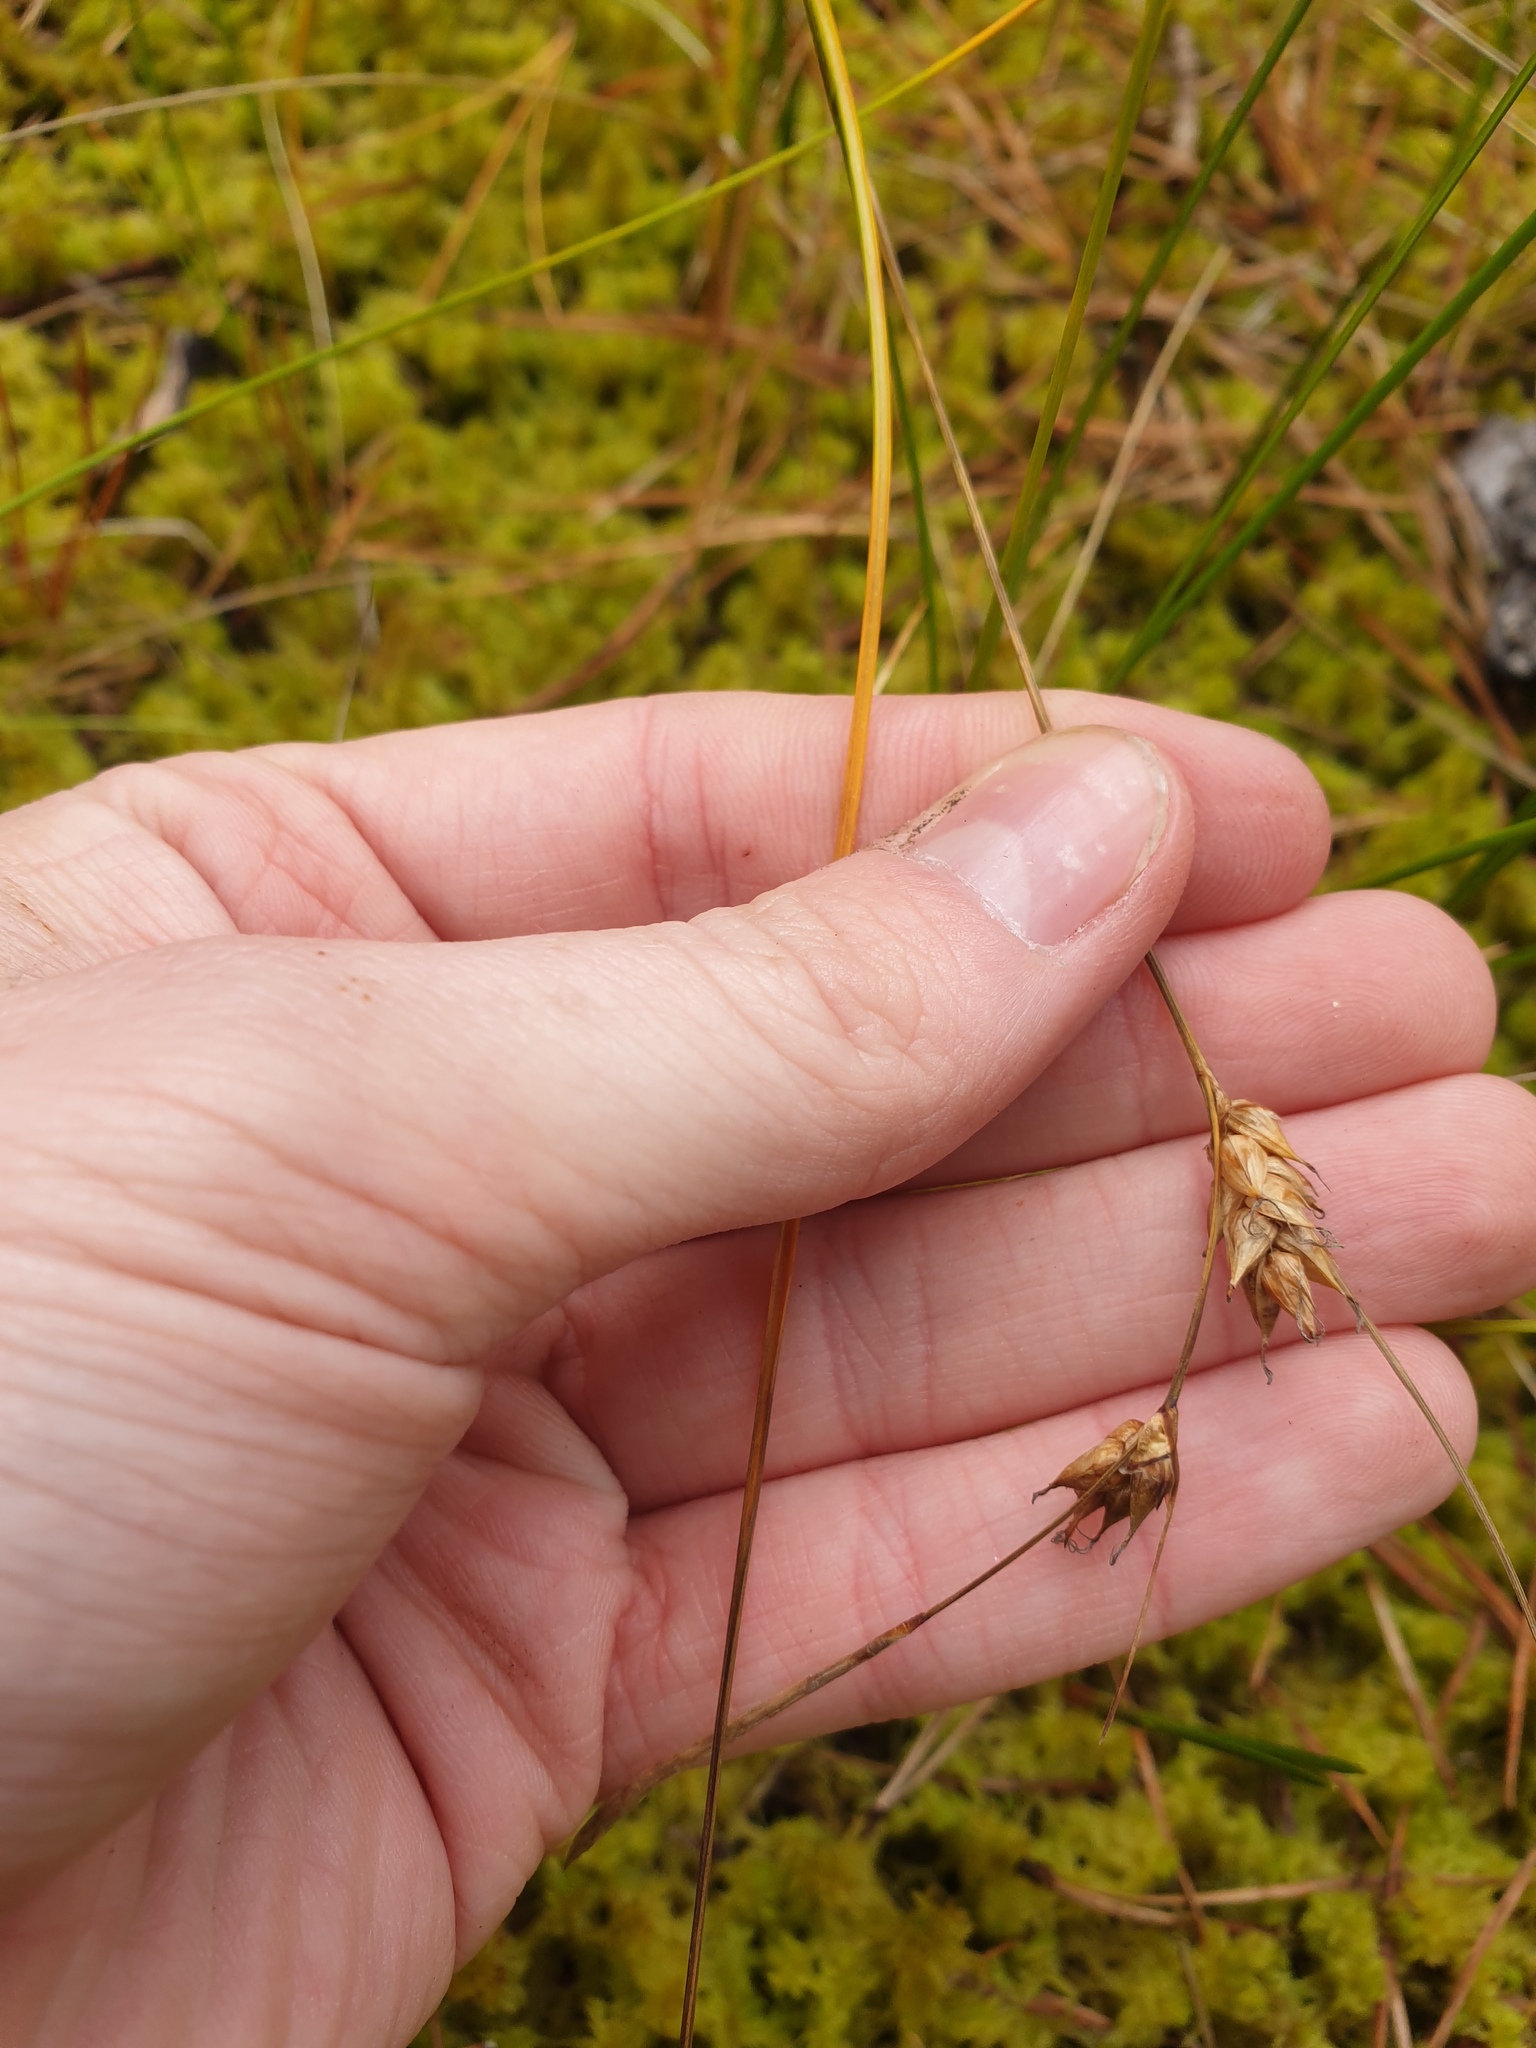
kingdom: Plantae
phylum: Tracheophyta
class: Liliopsida
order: Poales
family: Cyperaceae
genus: Carex
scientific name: Carex oligosperma
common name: Few-seed sedge
